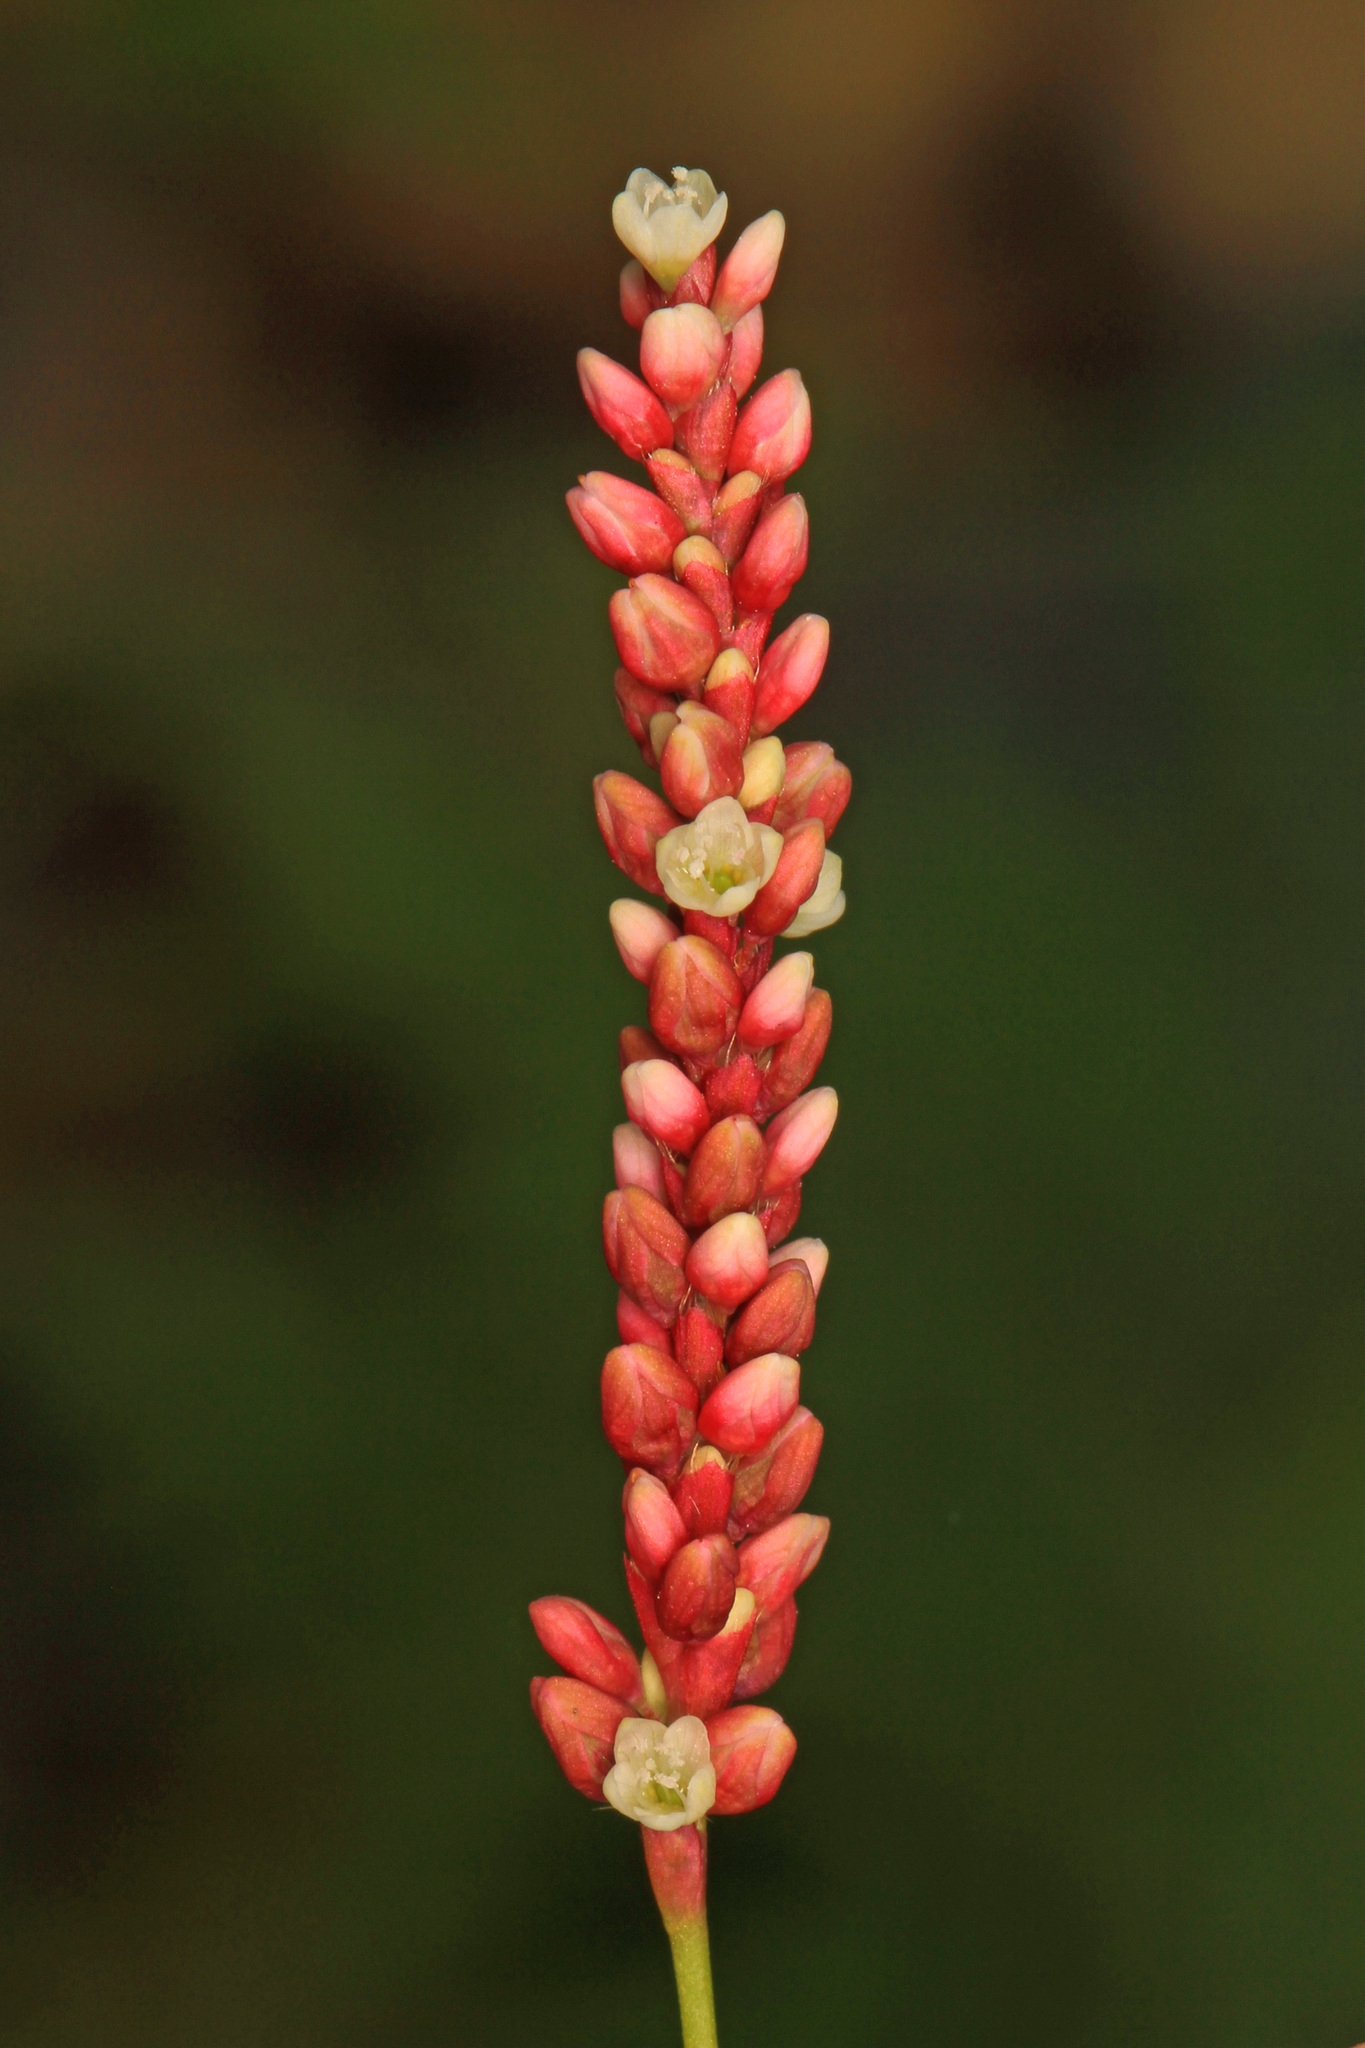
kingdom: Plantae
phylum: Tracheophyta
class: Magnoliopsida
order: Caryophyllales
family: Polygonaceae
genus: Persicaria
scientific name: Persicaria glabra
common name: Denseflower knotweed
